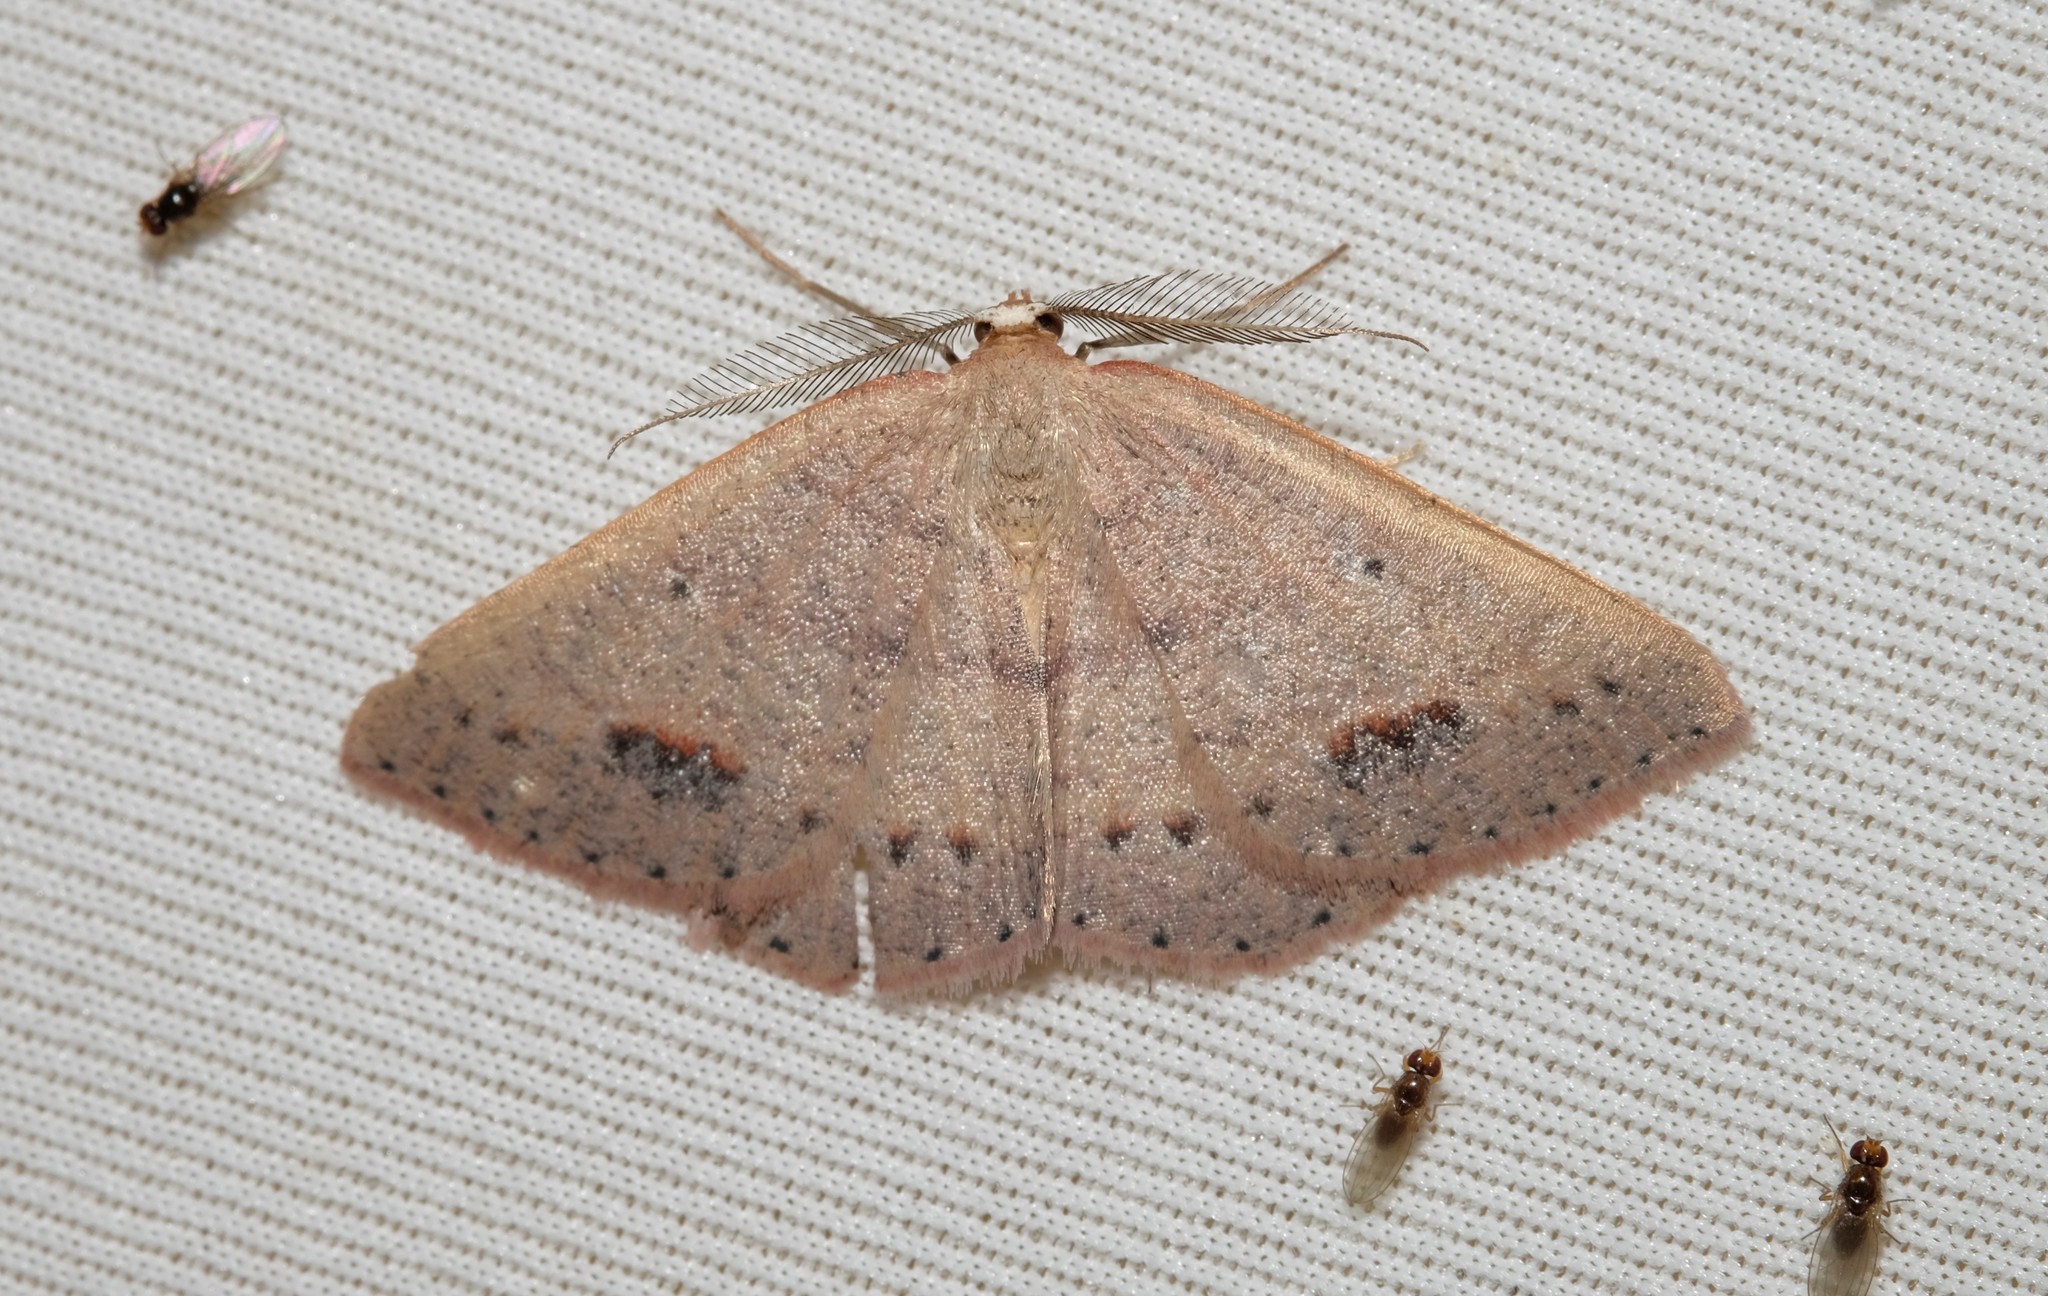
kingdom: Animalia
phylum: Arthropoda
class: Insecta
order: Lepidoptera
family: Geometridae
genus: Casbia
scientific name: Casbia oenias
